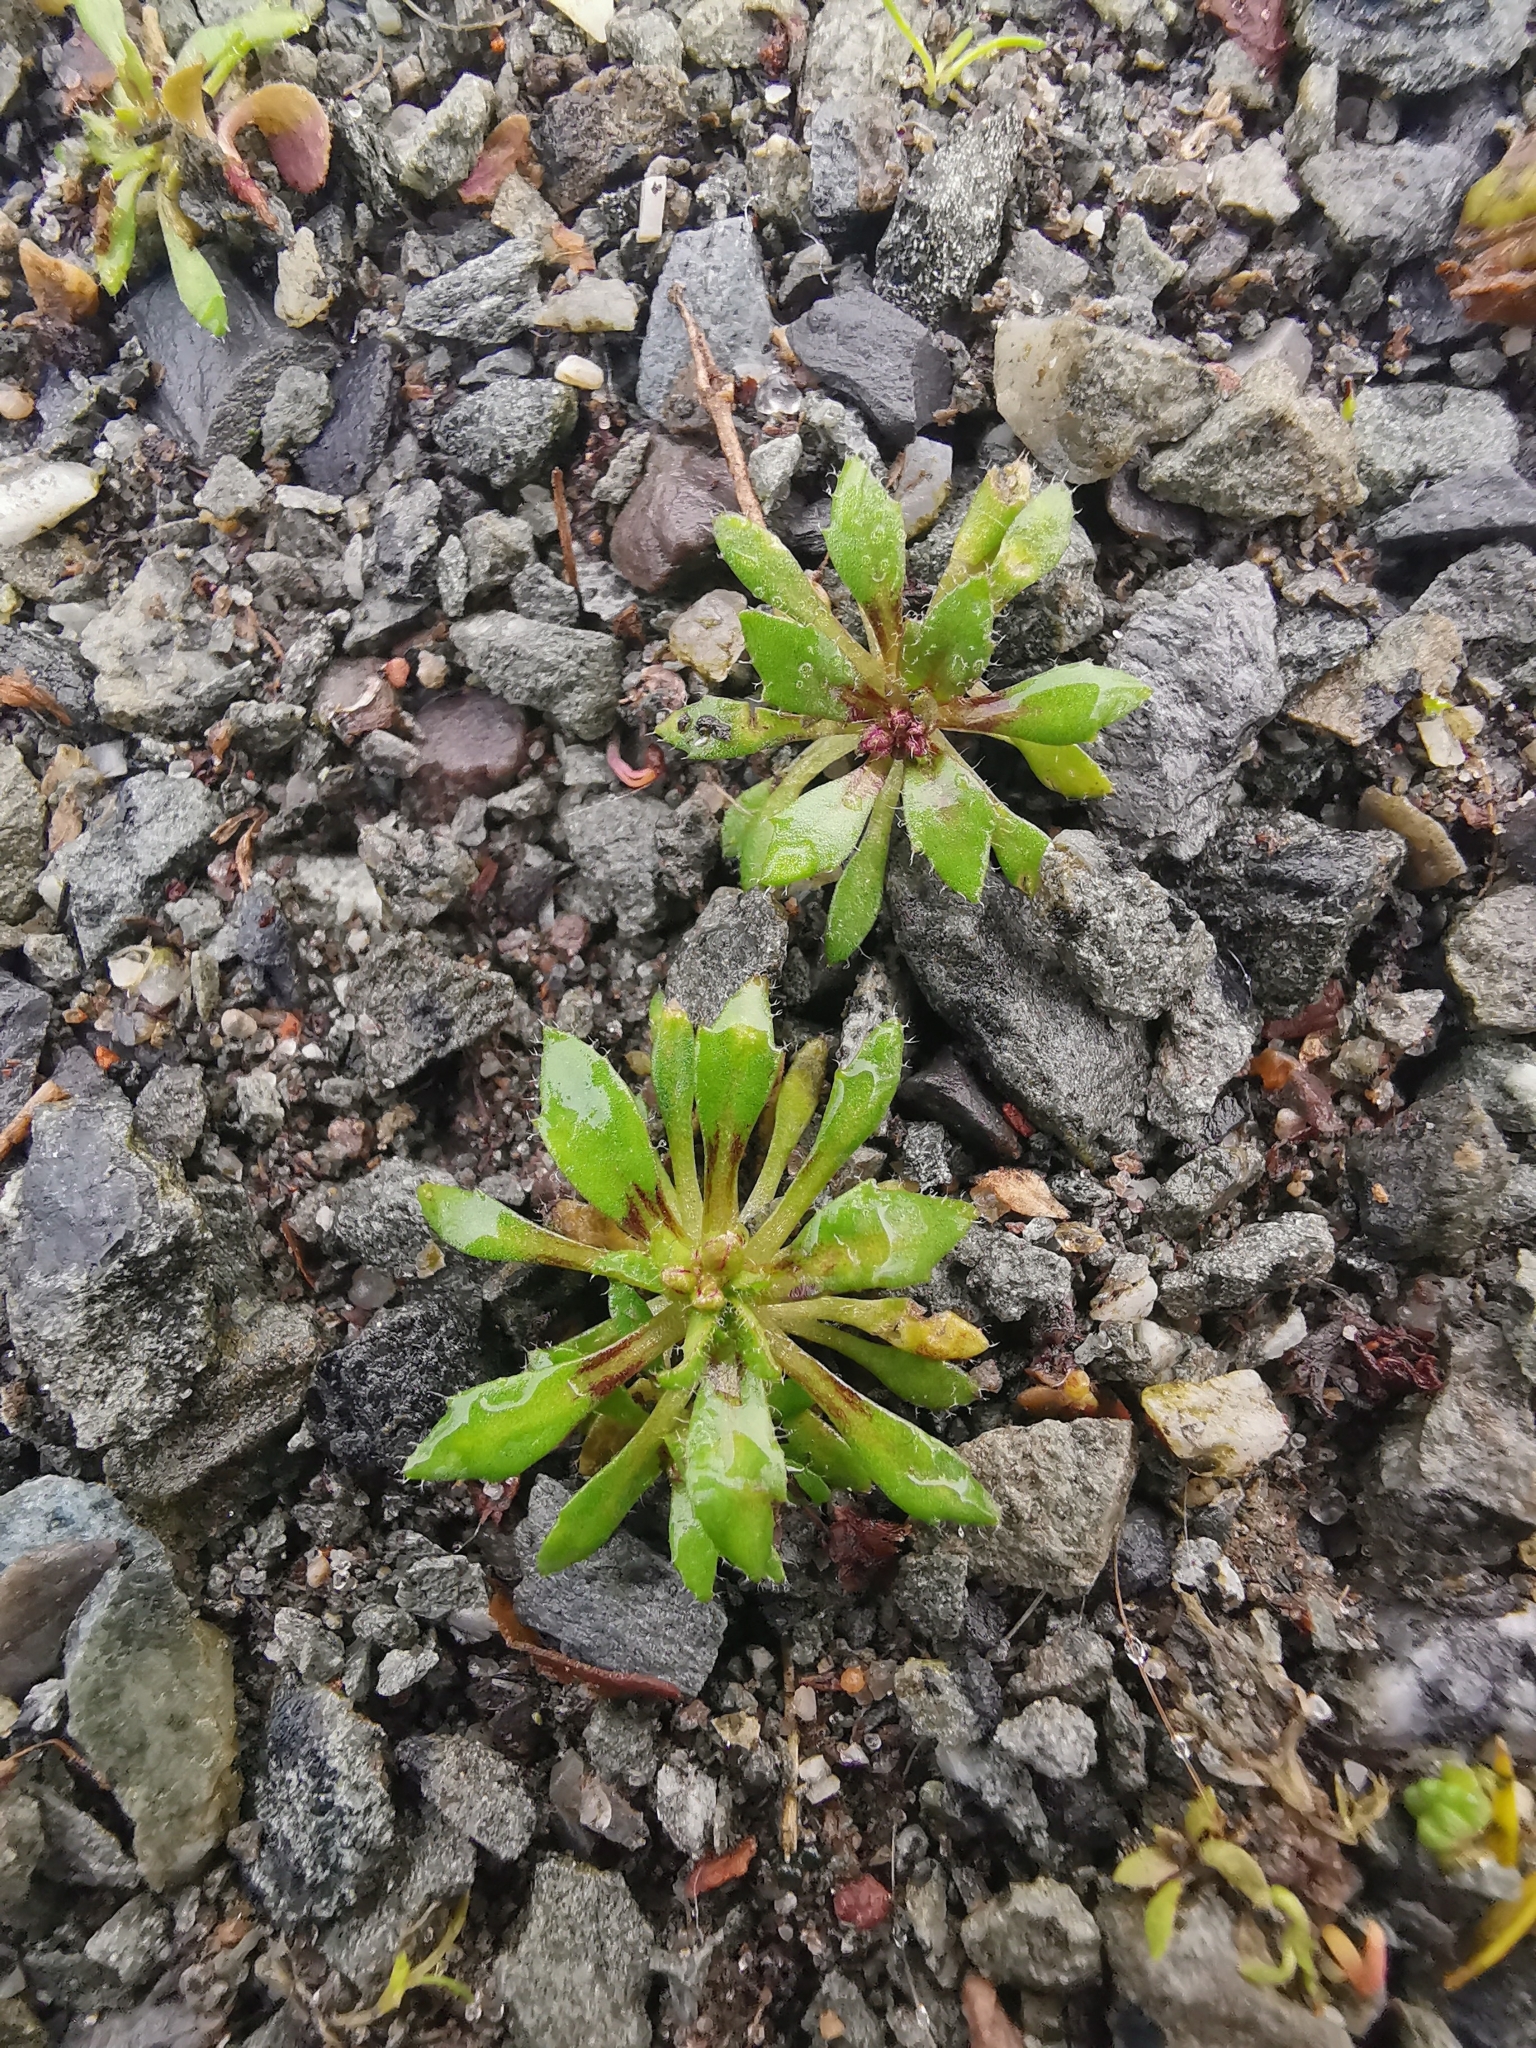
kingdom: Plantae
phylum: Tracheophyta
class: Magnoliopsida
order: Brassicales
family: Brassicaceae
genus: Draba
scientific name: Draba verna
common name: Spring draba
